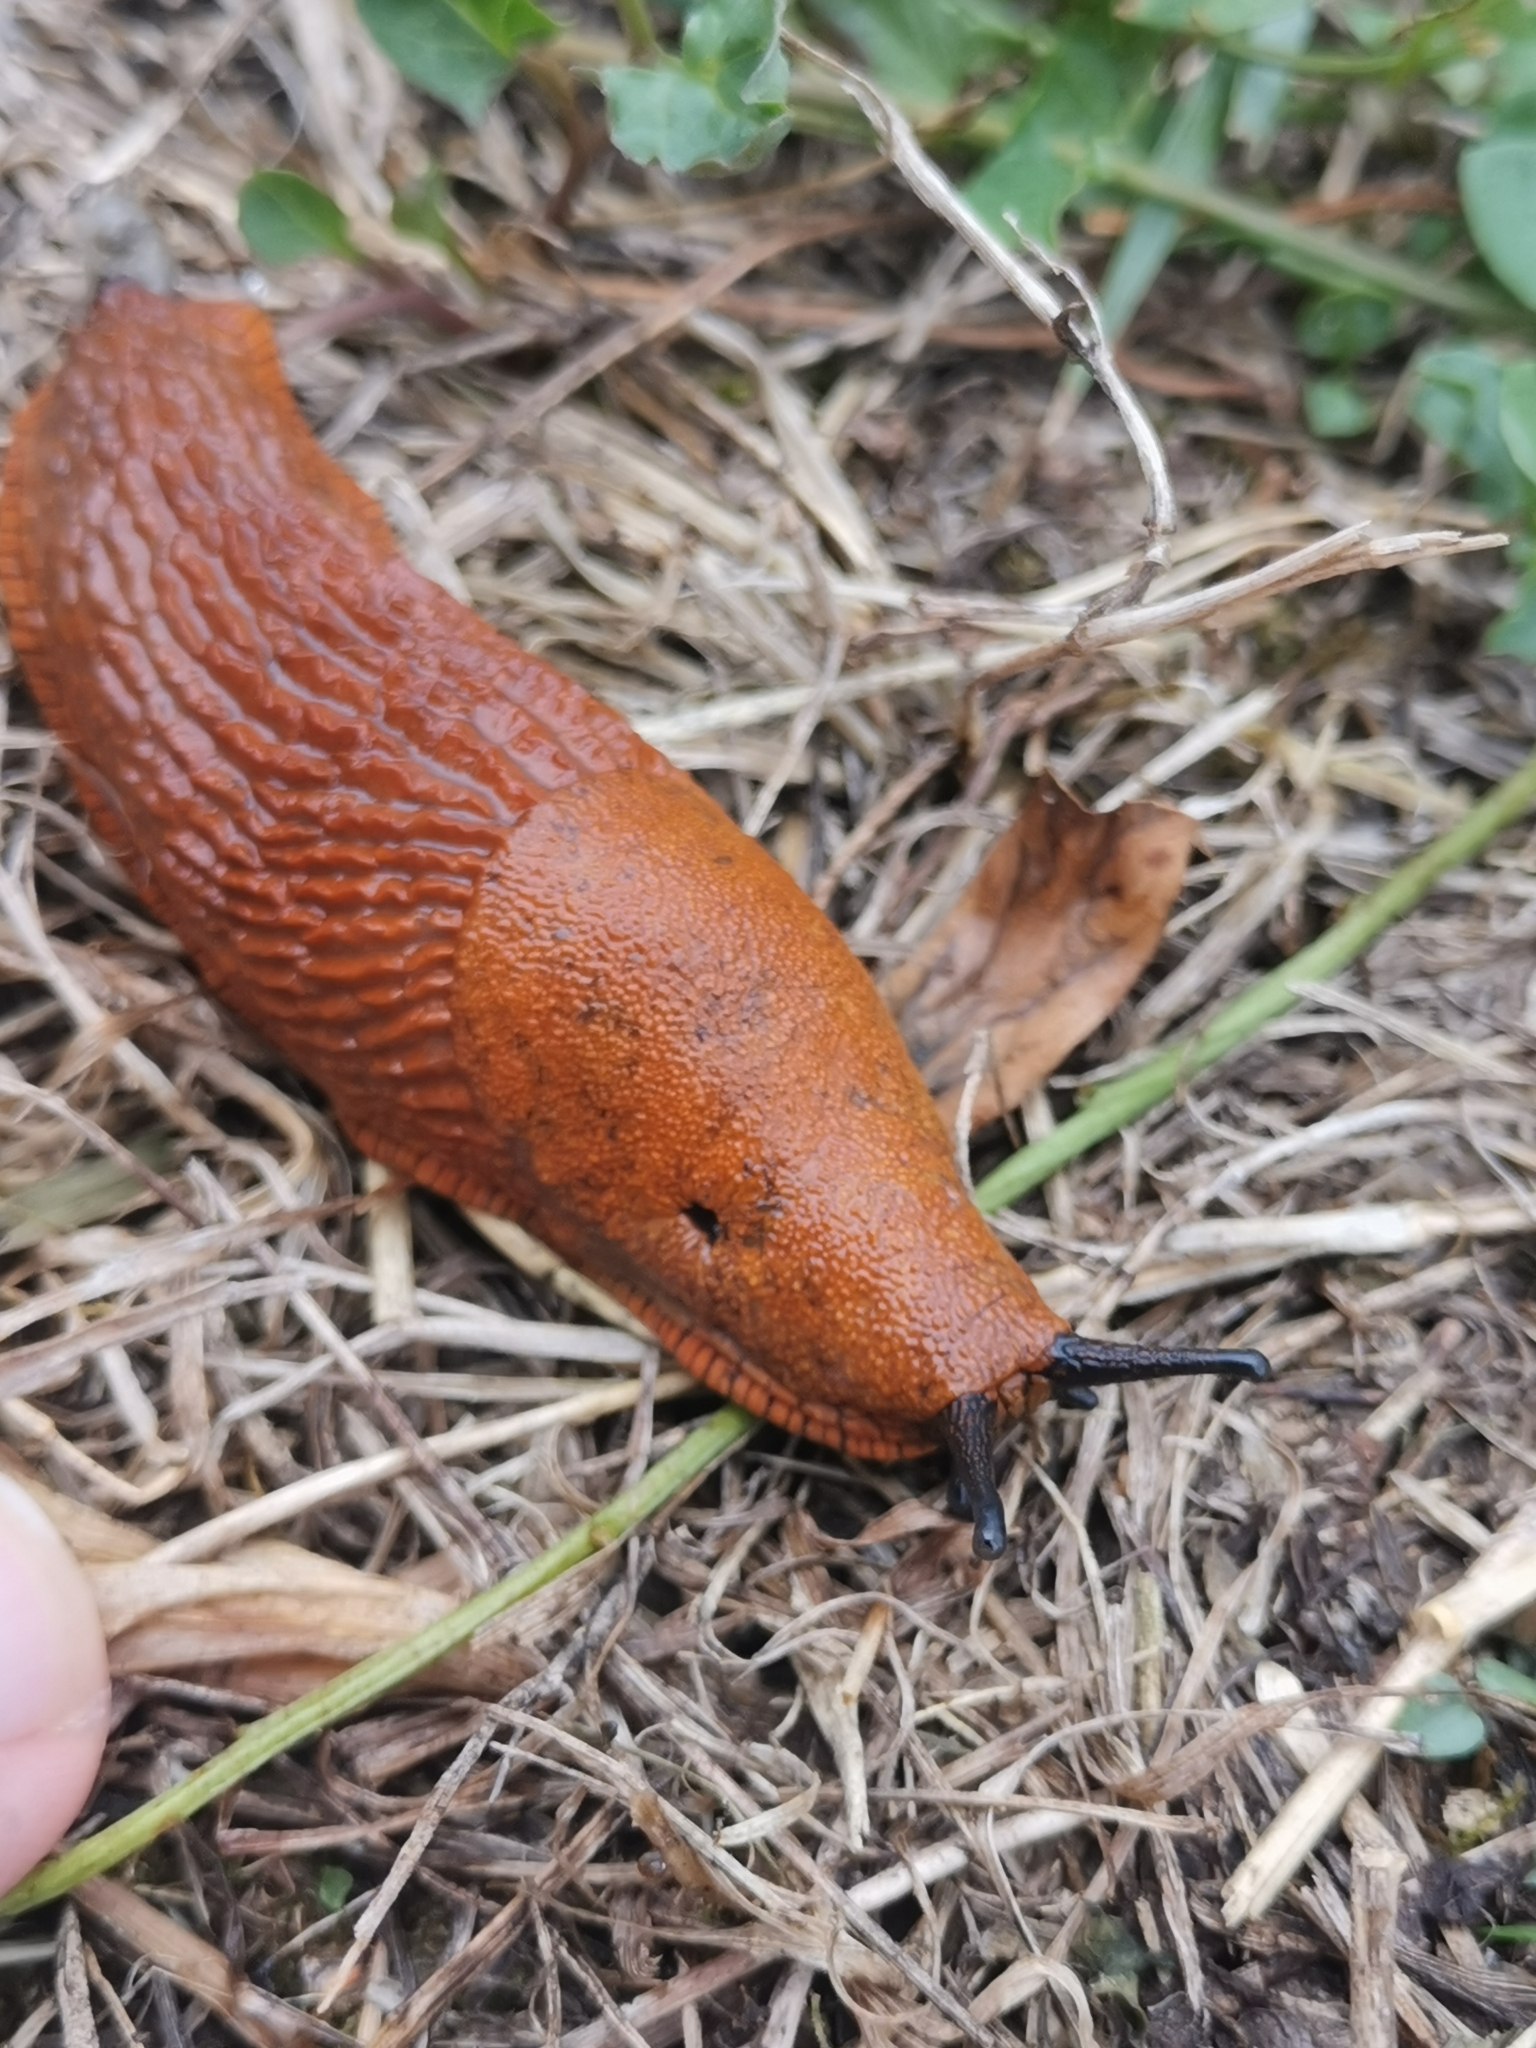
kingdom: Animalia
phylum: Mollusca
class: Gastropoda
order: Stylommatophora
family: Arionidae
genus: Arion
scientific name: Arion rufus
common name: Chocolate arion
